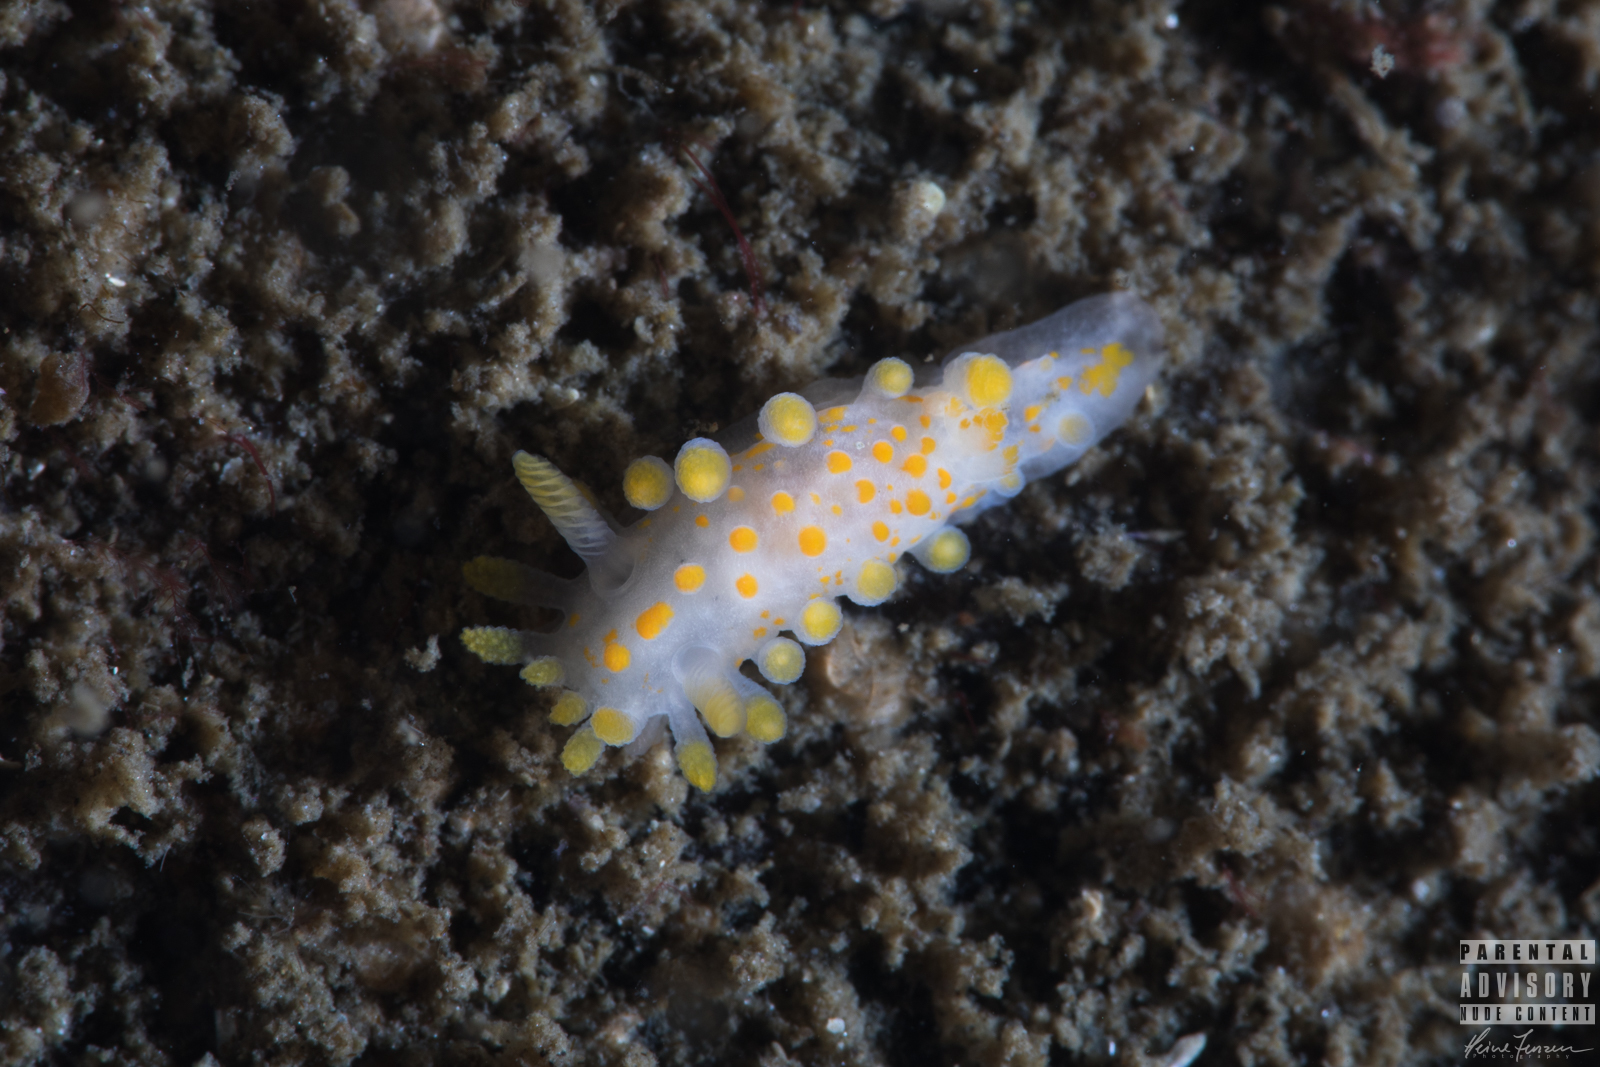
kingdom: Animalia
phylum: Mollusca
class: Gastropoda
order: Nudibranchia
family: Polyceridae
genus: Limacia
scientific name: Limacia clavigera
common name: Orange-clubbed sea slug
